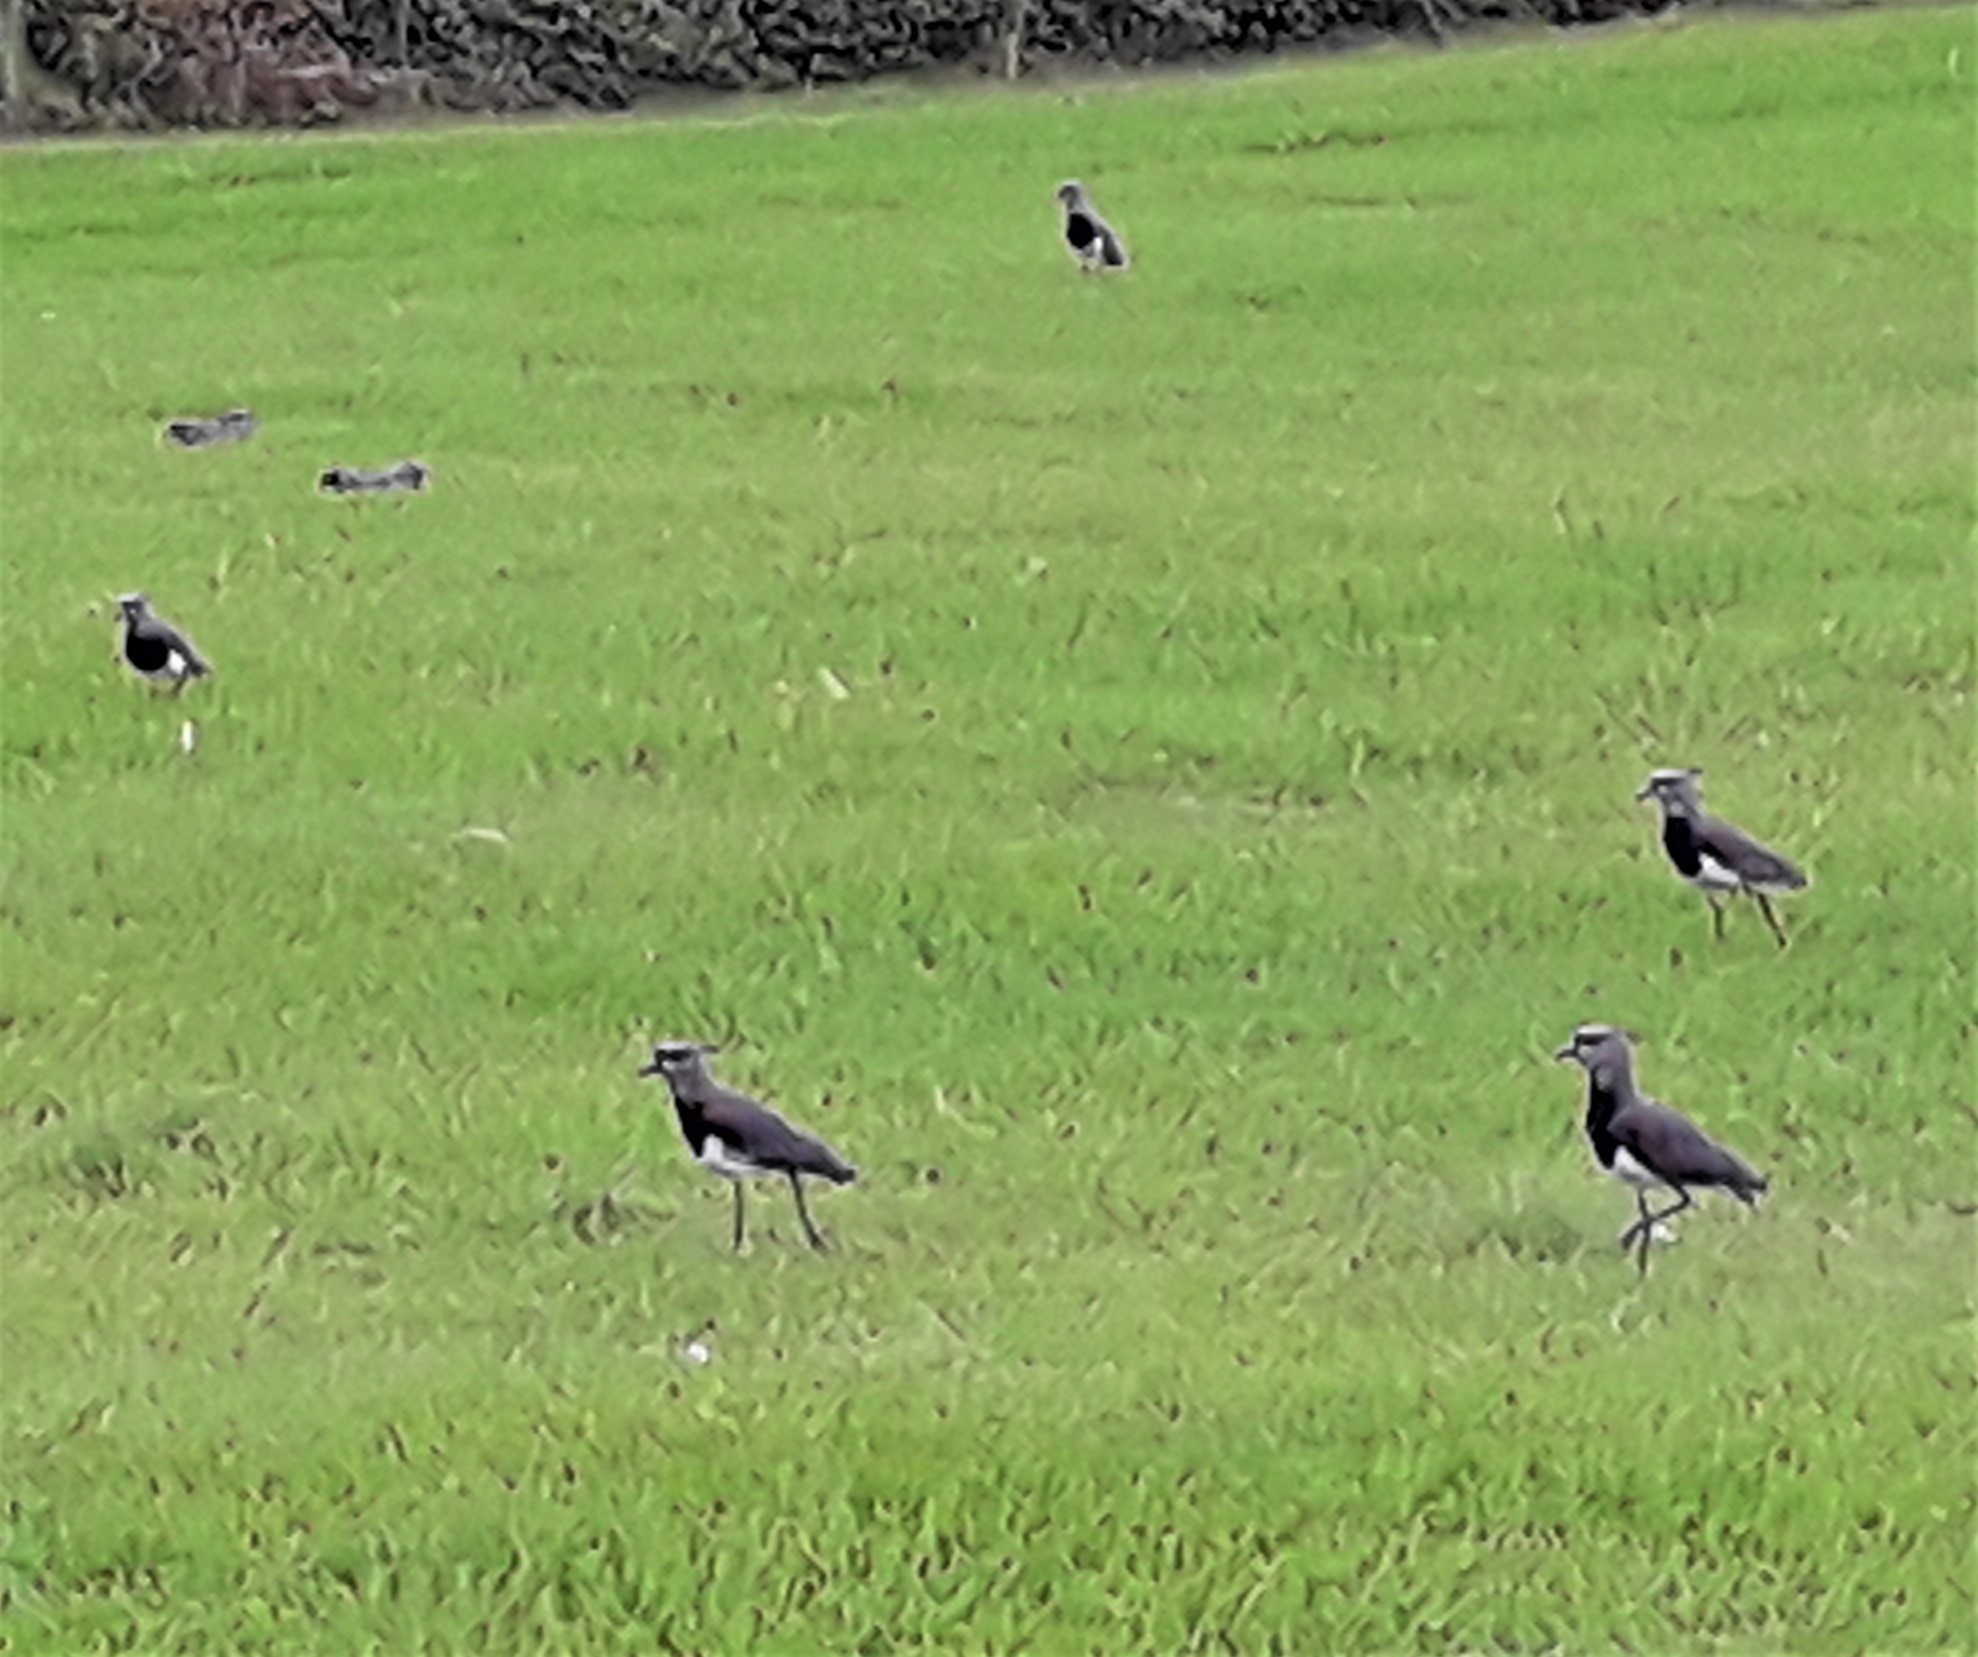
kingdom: Animalia
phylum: Chordata
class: Aves
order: Charadriiformes
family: Charadriidae
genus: Vanellus
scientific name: Vanellus chilensis
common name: Southern lapwing
